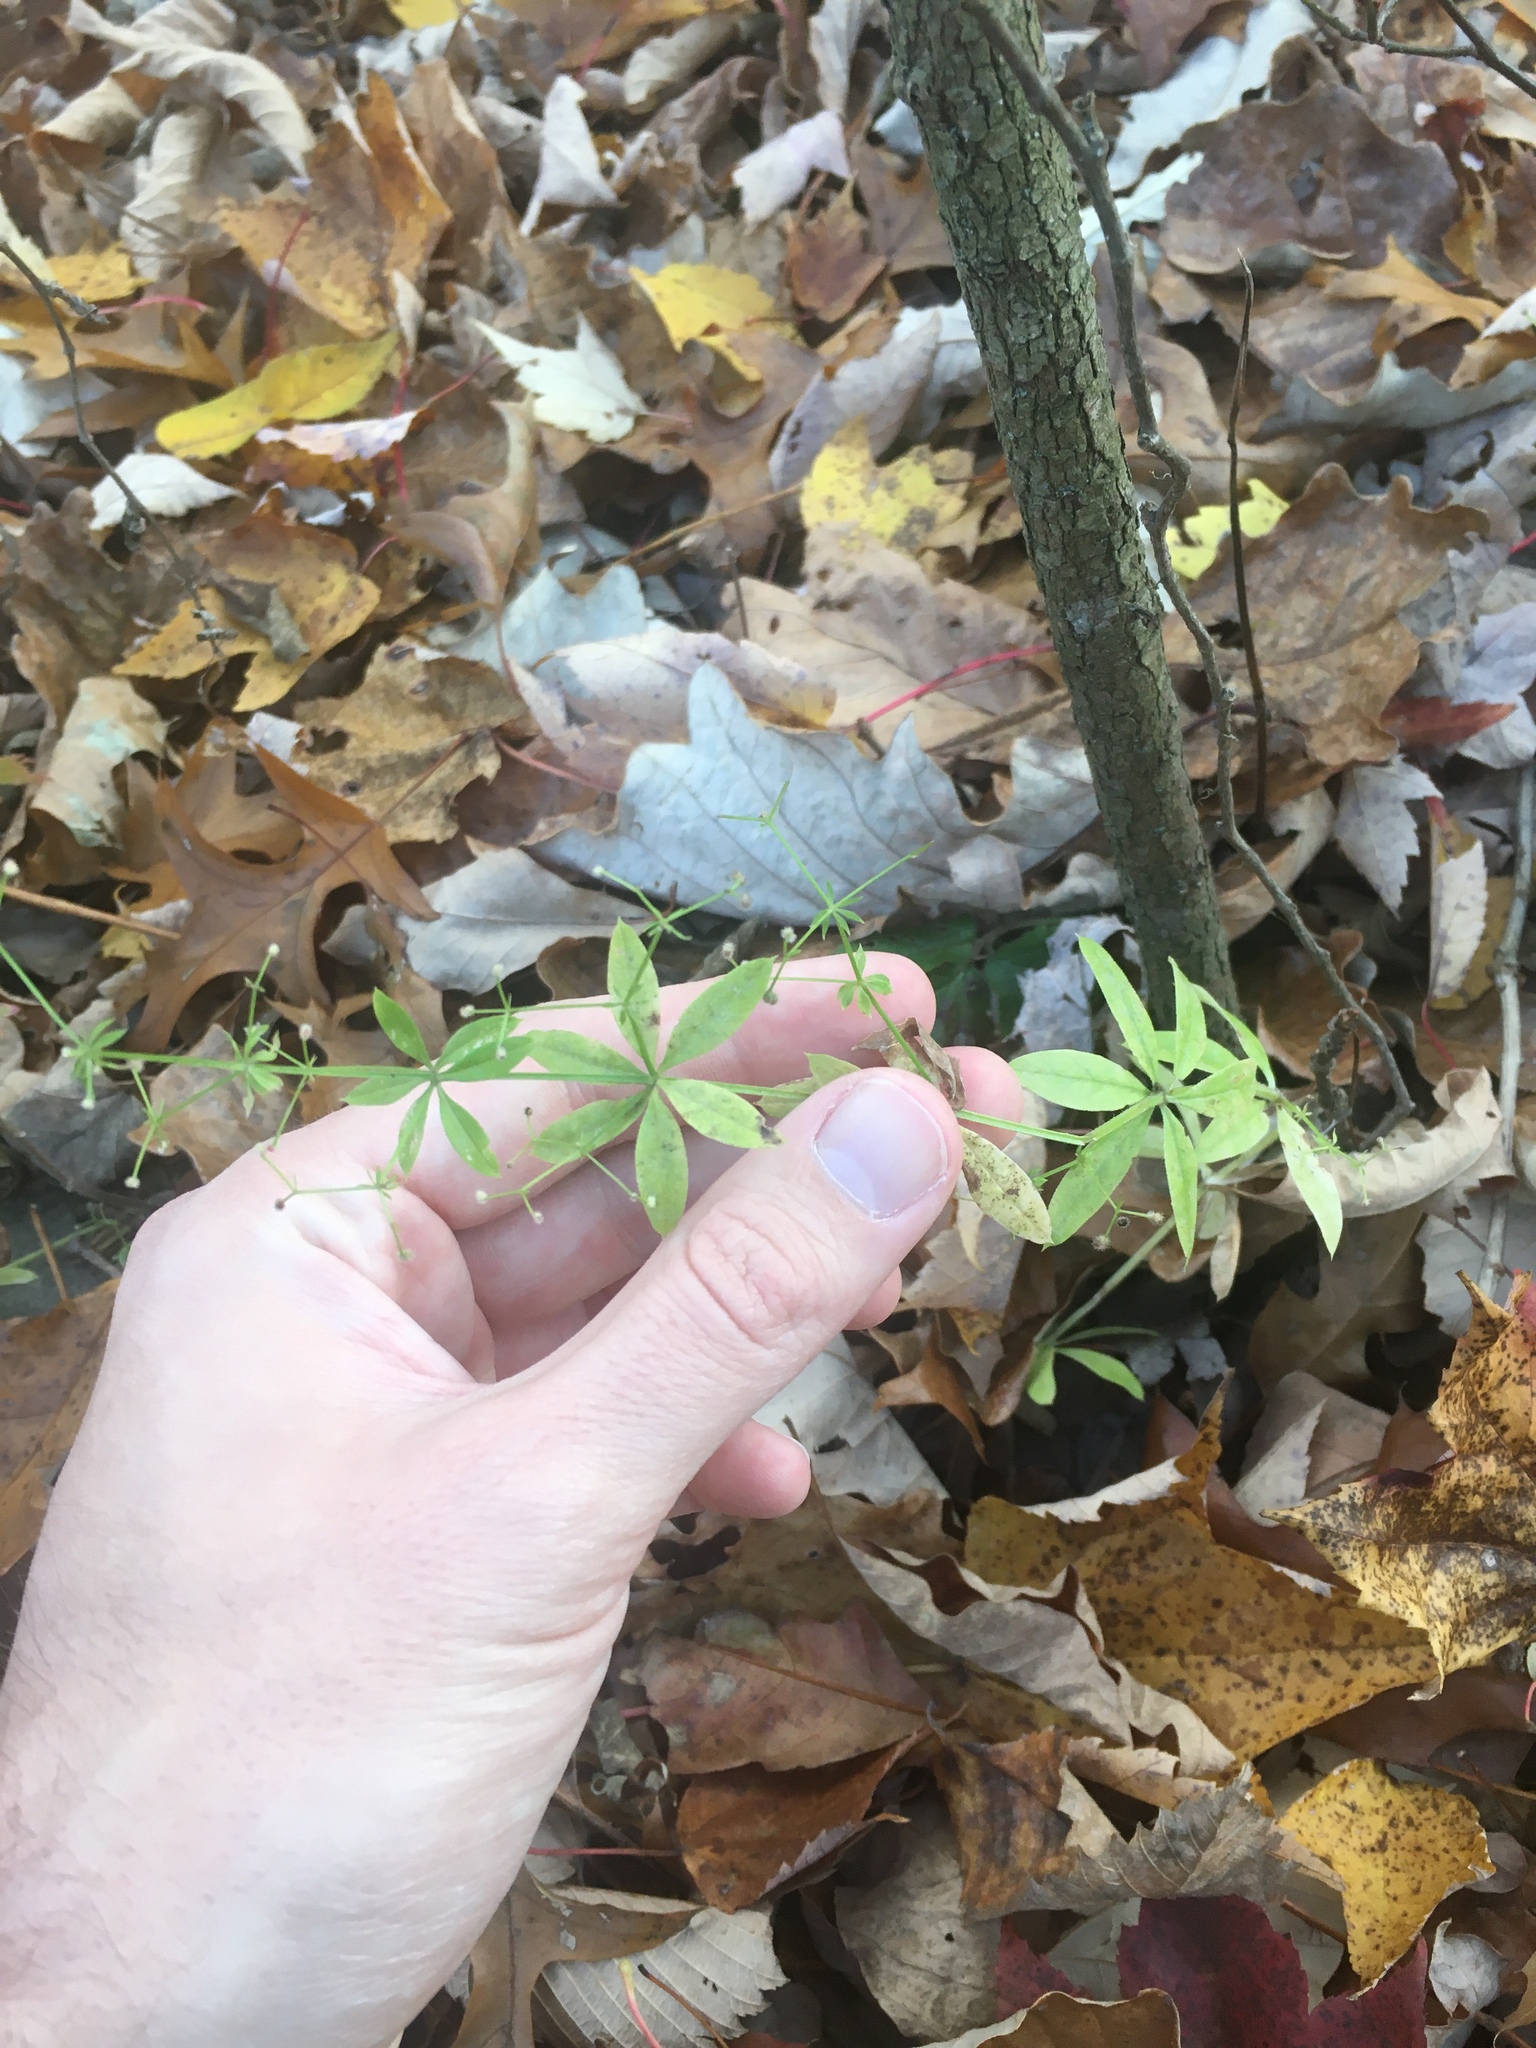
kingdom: Plantae
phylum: Tracheophyta
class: Magnoliopsida
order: Gentianales
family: Rubiaceae
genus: Galium
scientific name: Galium triflorum
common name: Fragrant bedstraw
